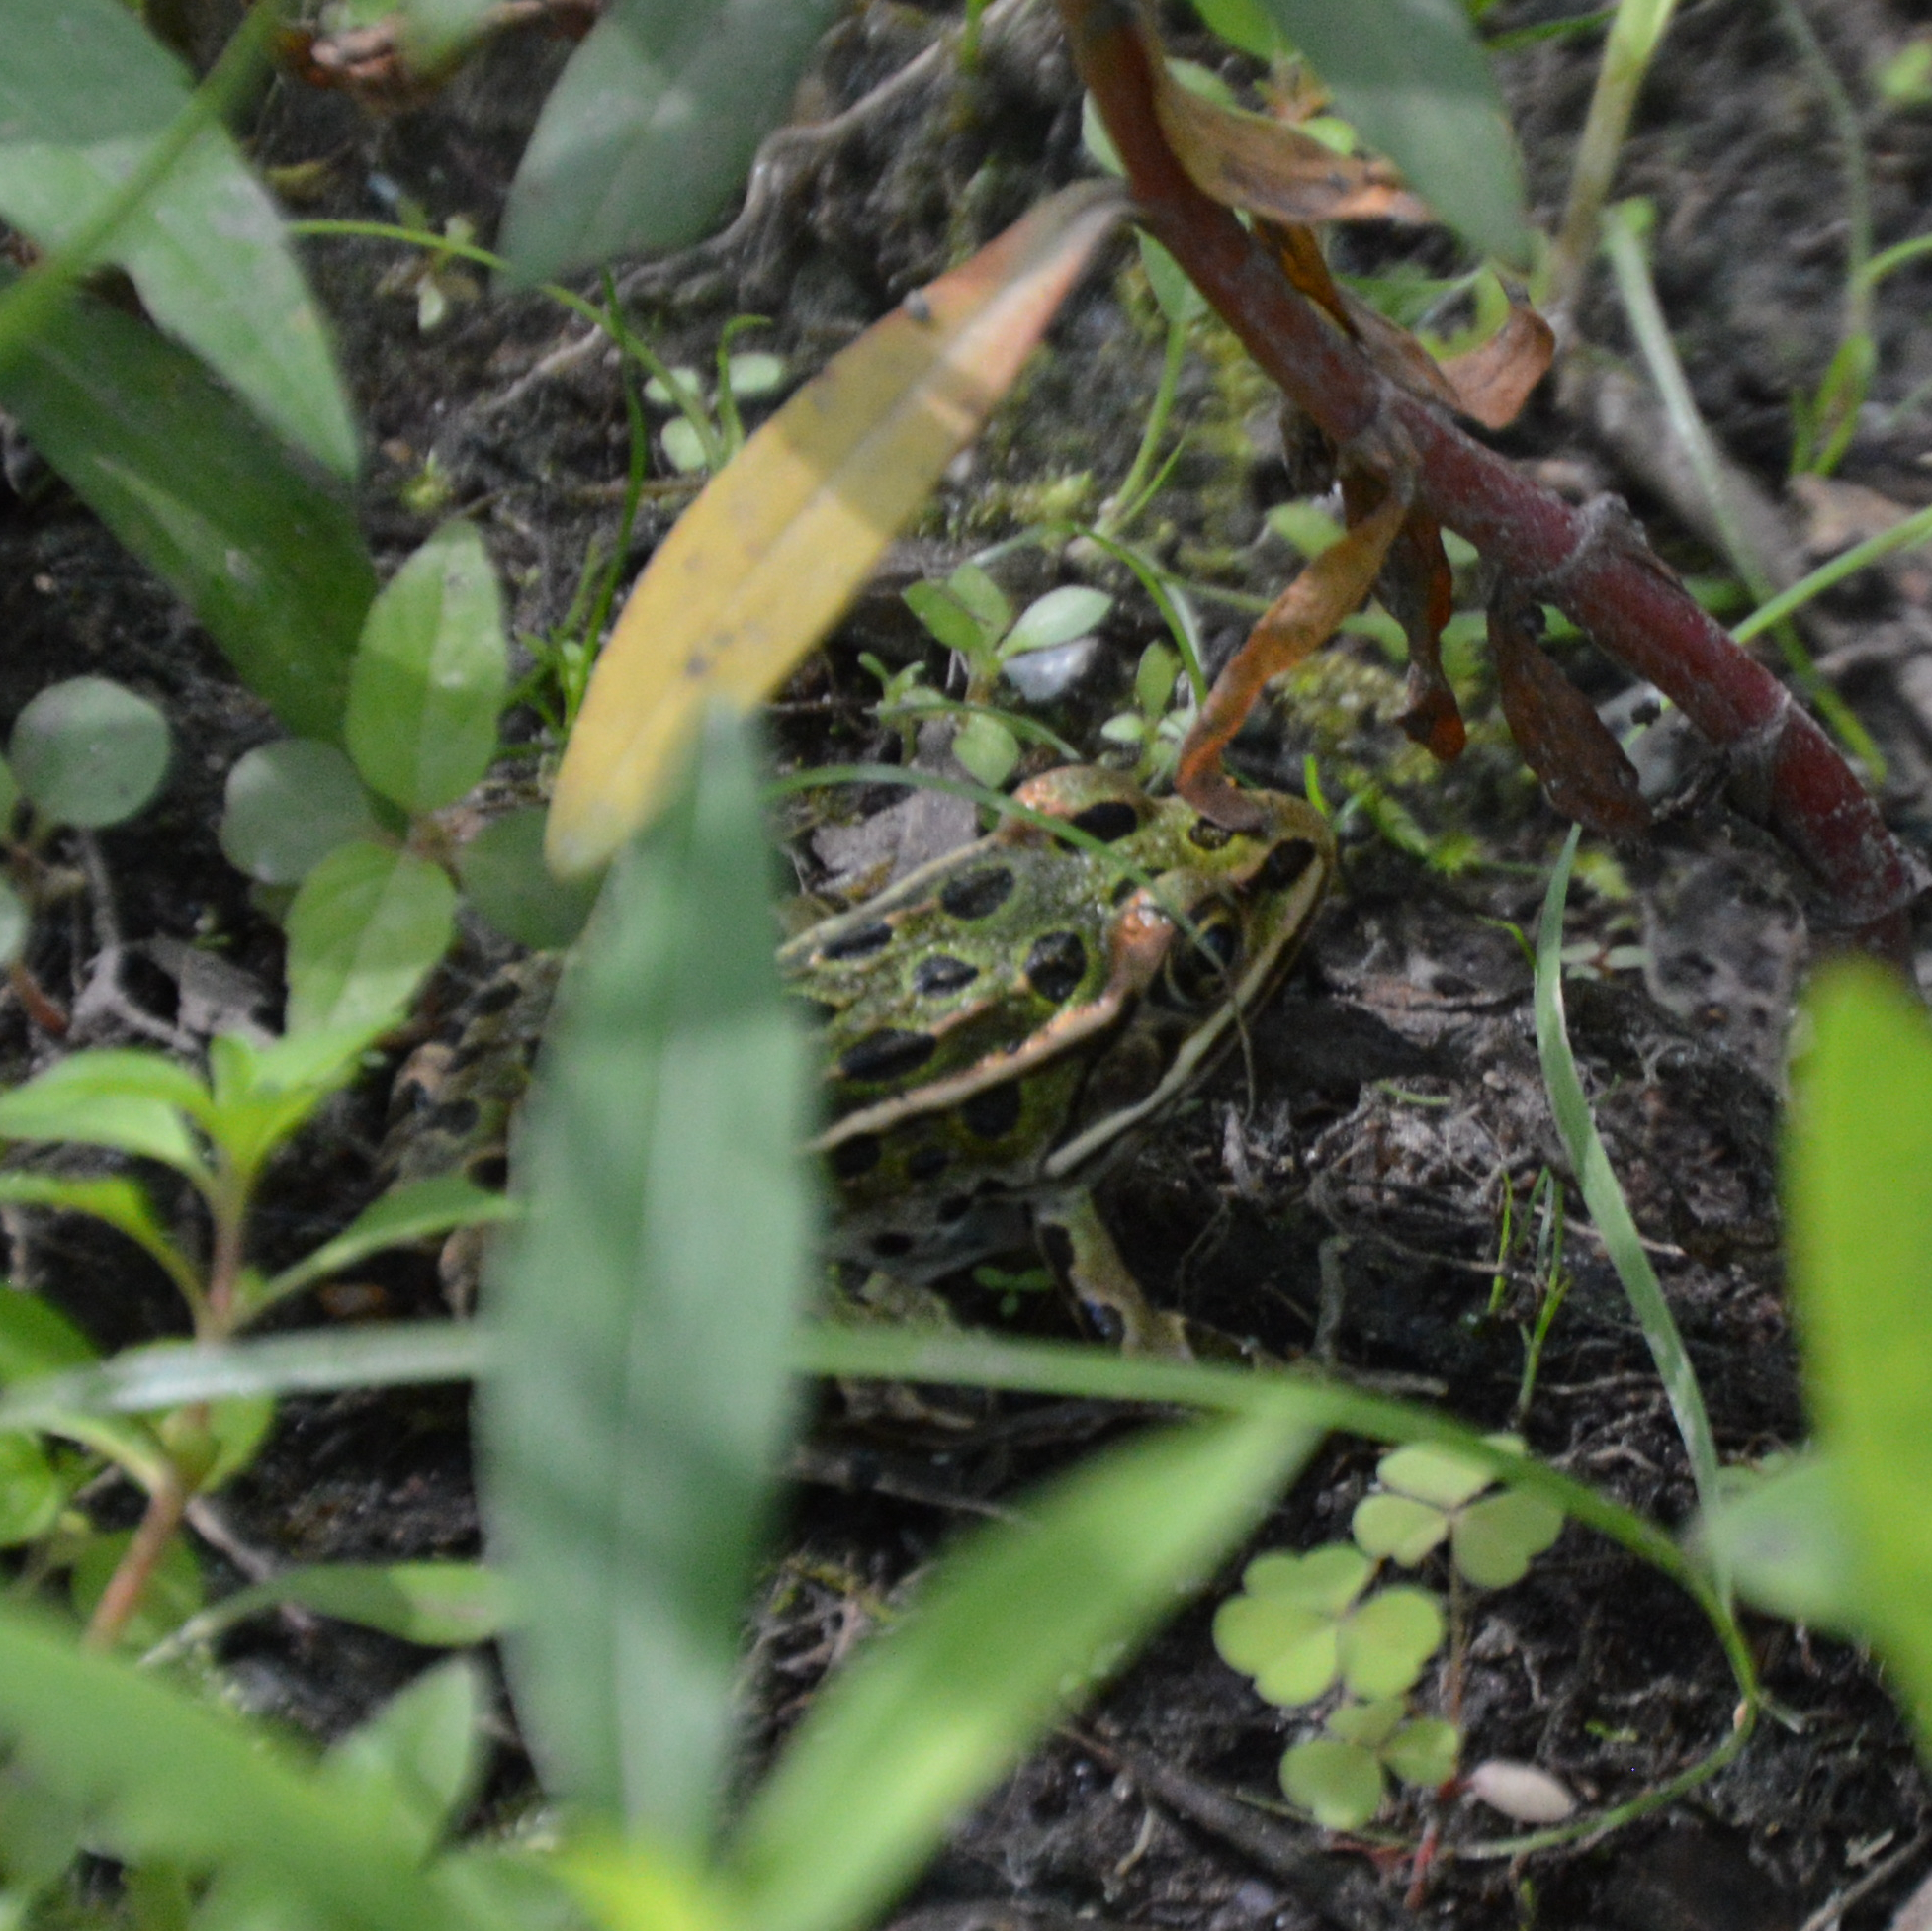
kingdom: Animalia
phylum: Chordata
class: Amphibia
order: Anura
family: Ranidae
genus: Lithobates
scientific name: Lithobates pipiens
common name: Northern leopard frog
